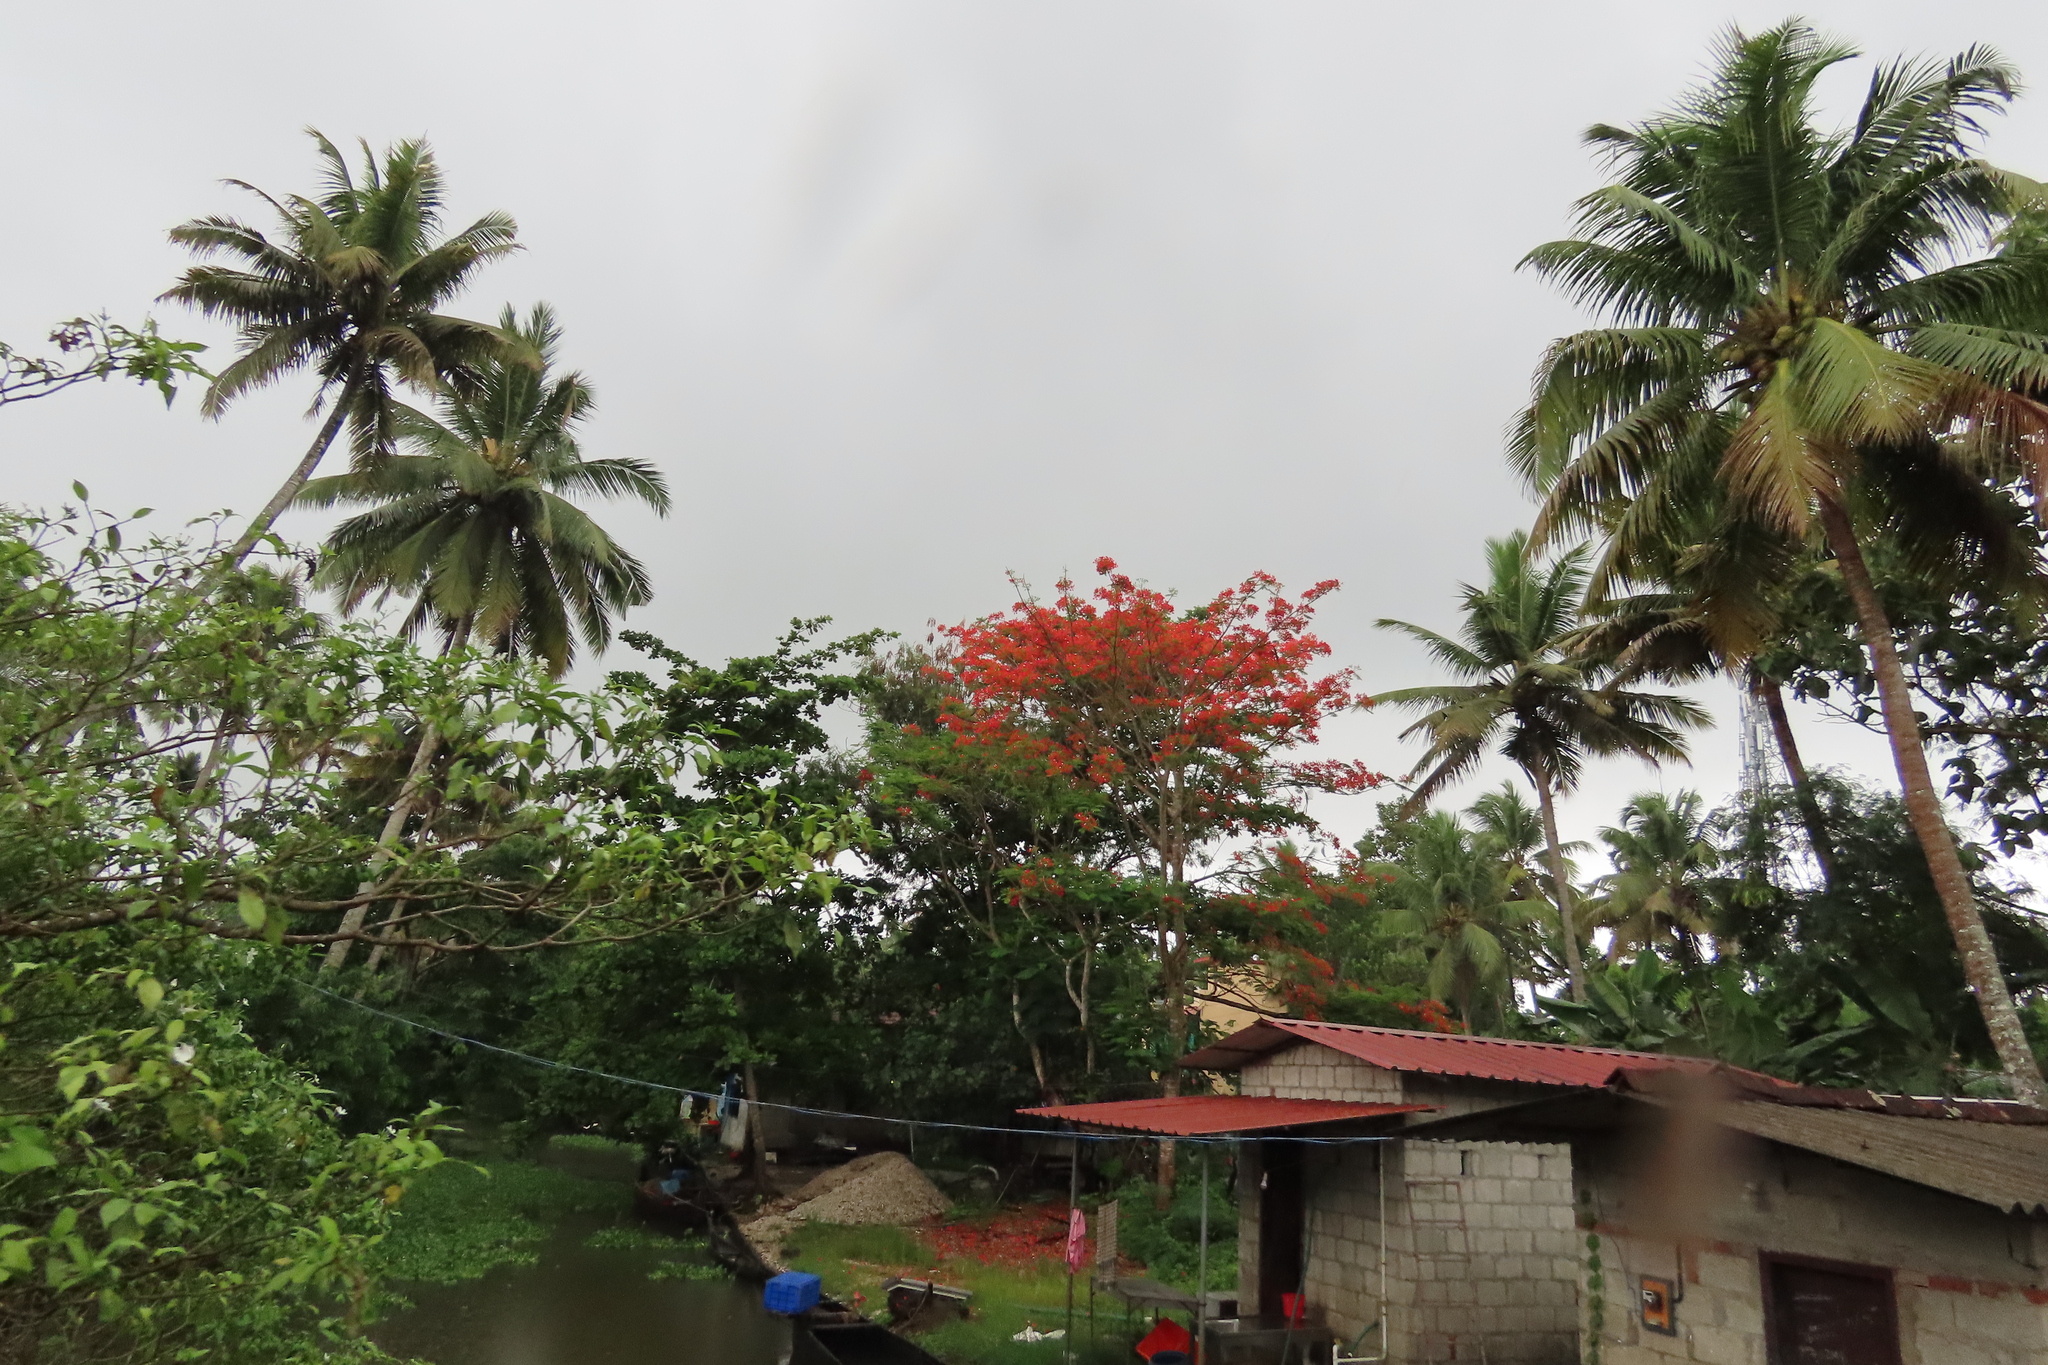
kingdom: Plantae
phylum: Tracheophyta
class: Magnoliopsida
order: Fabales
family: Fabaceae
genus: Delonix
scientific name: Delonix regia
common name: Royal poinciana
